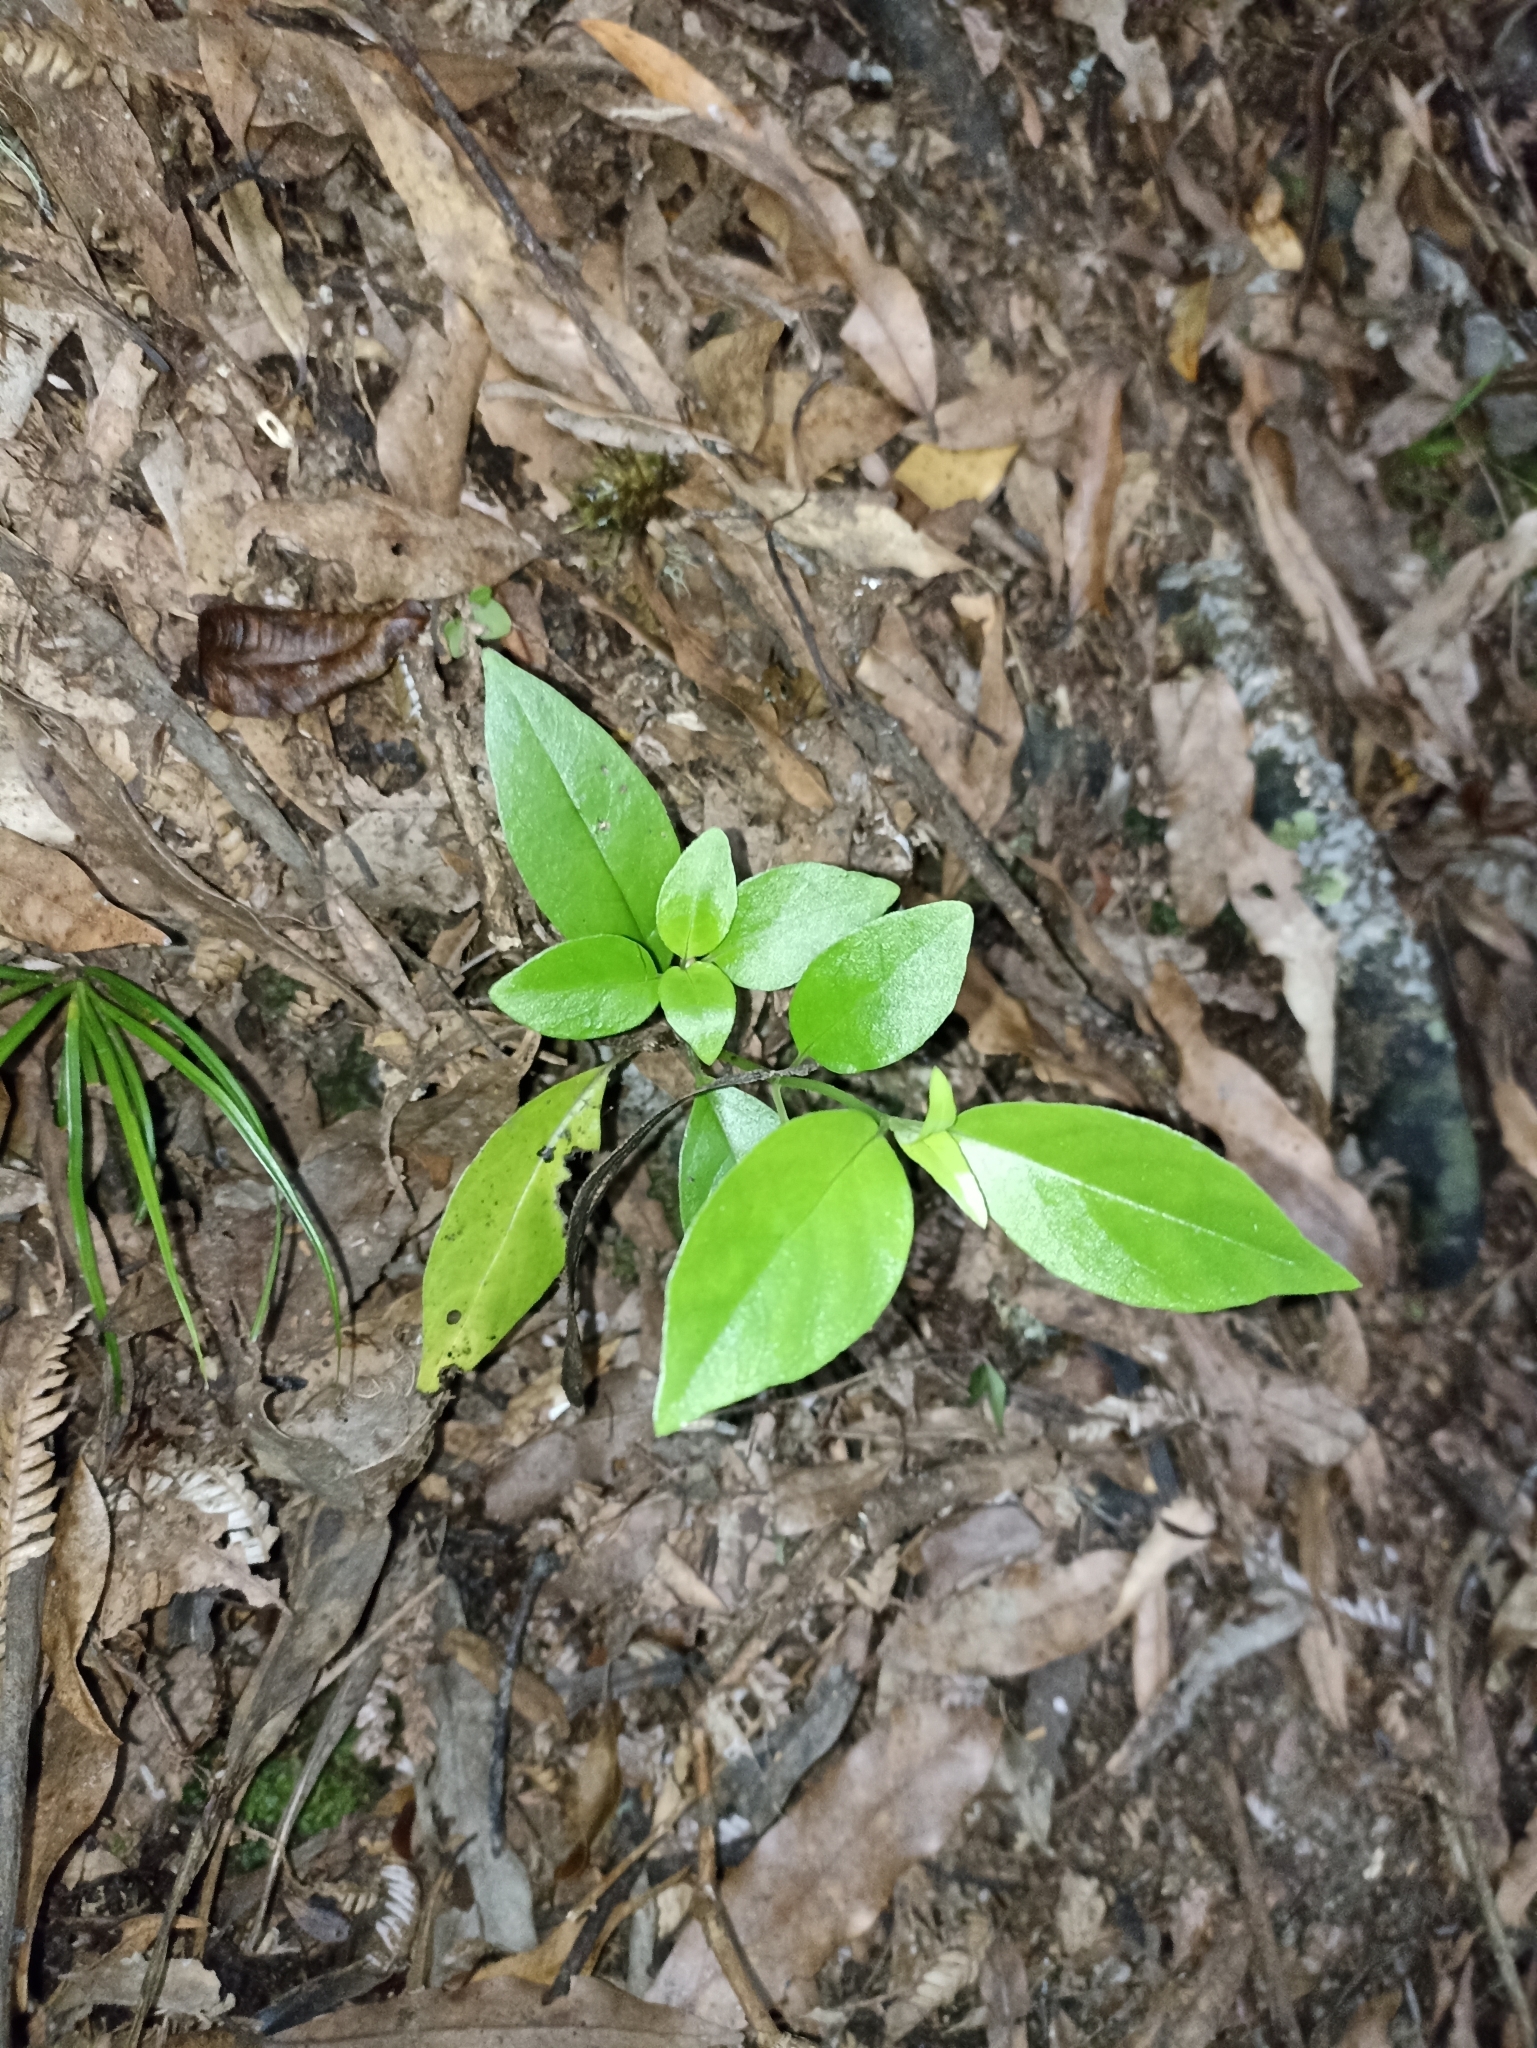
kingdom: Plantae
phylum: Tracheophyta
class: Magnoliopsida
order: Gentianales
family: Loganiaceae
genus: Geniostoma
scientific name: Geniostoma ligustrifolium
